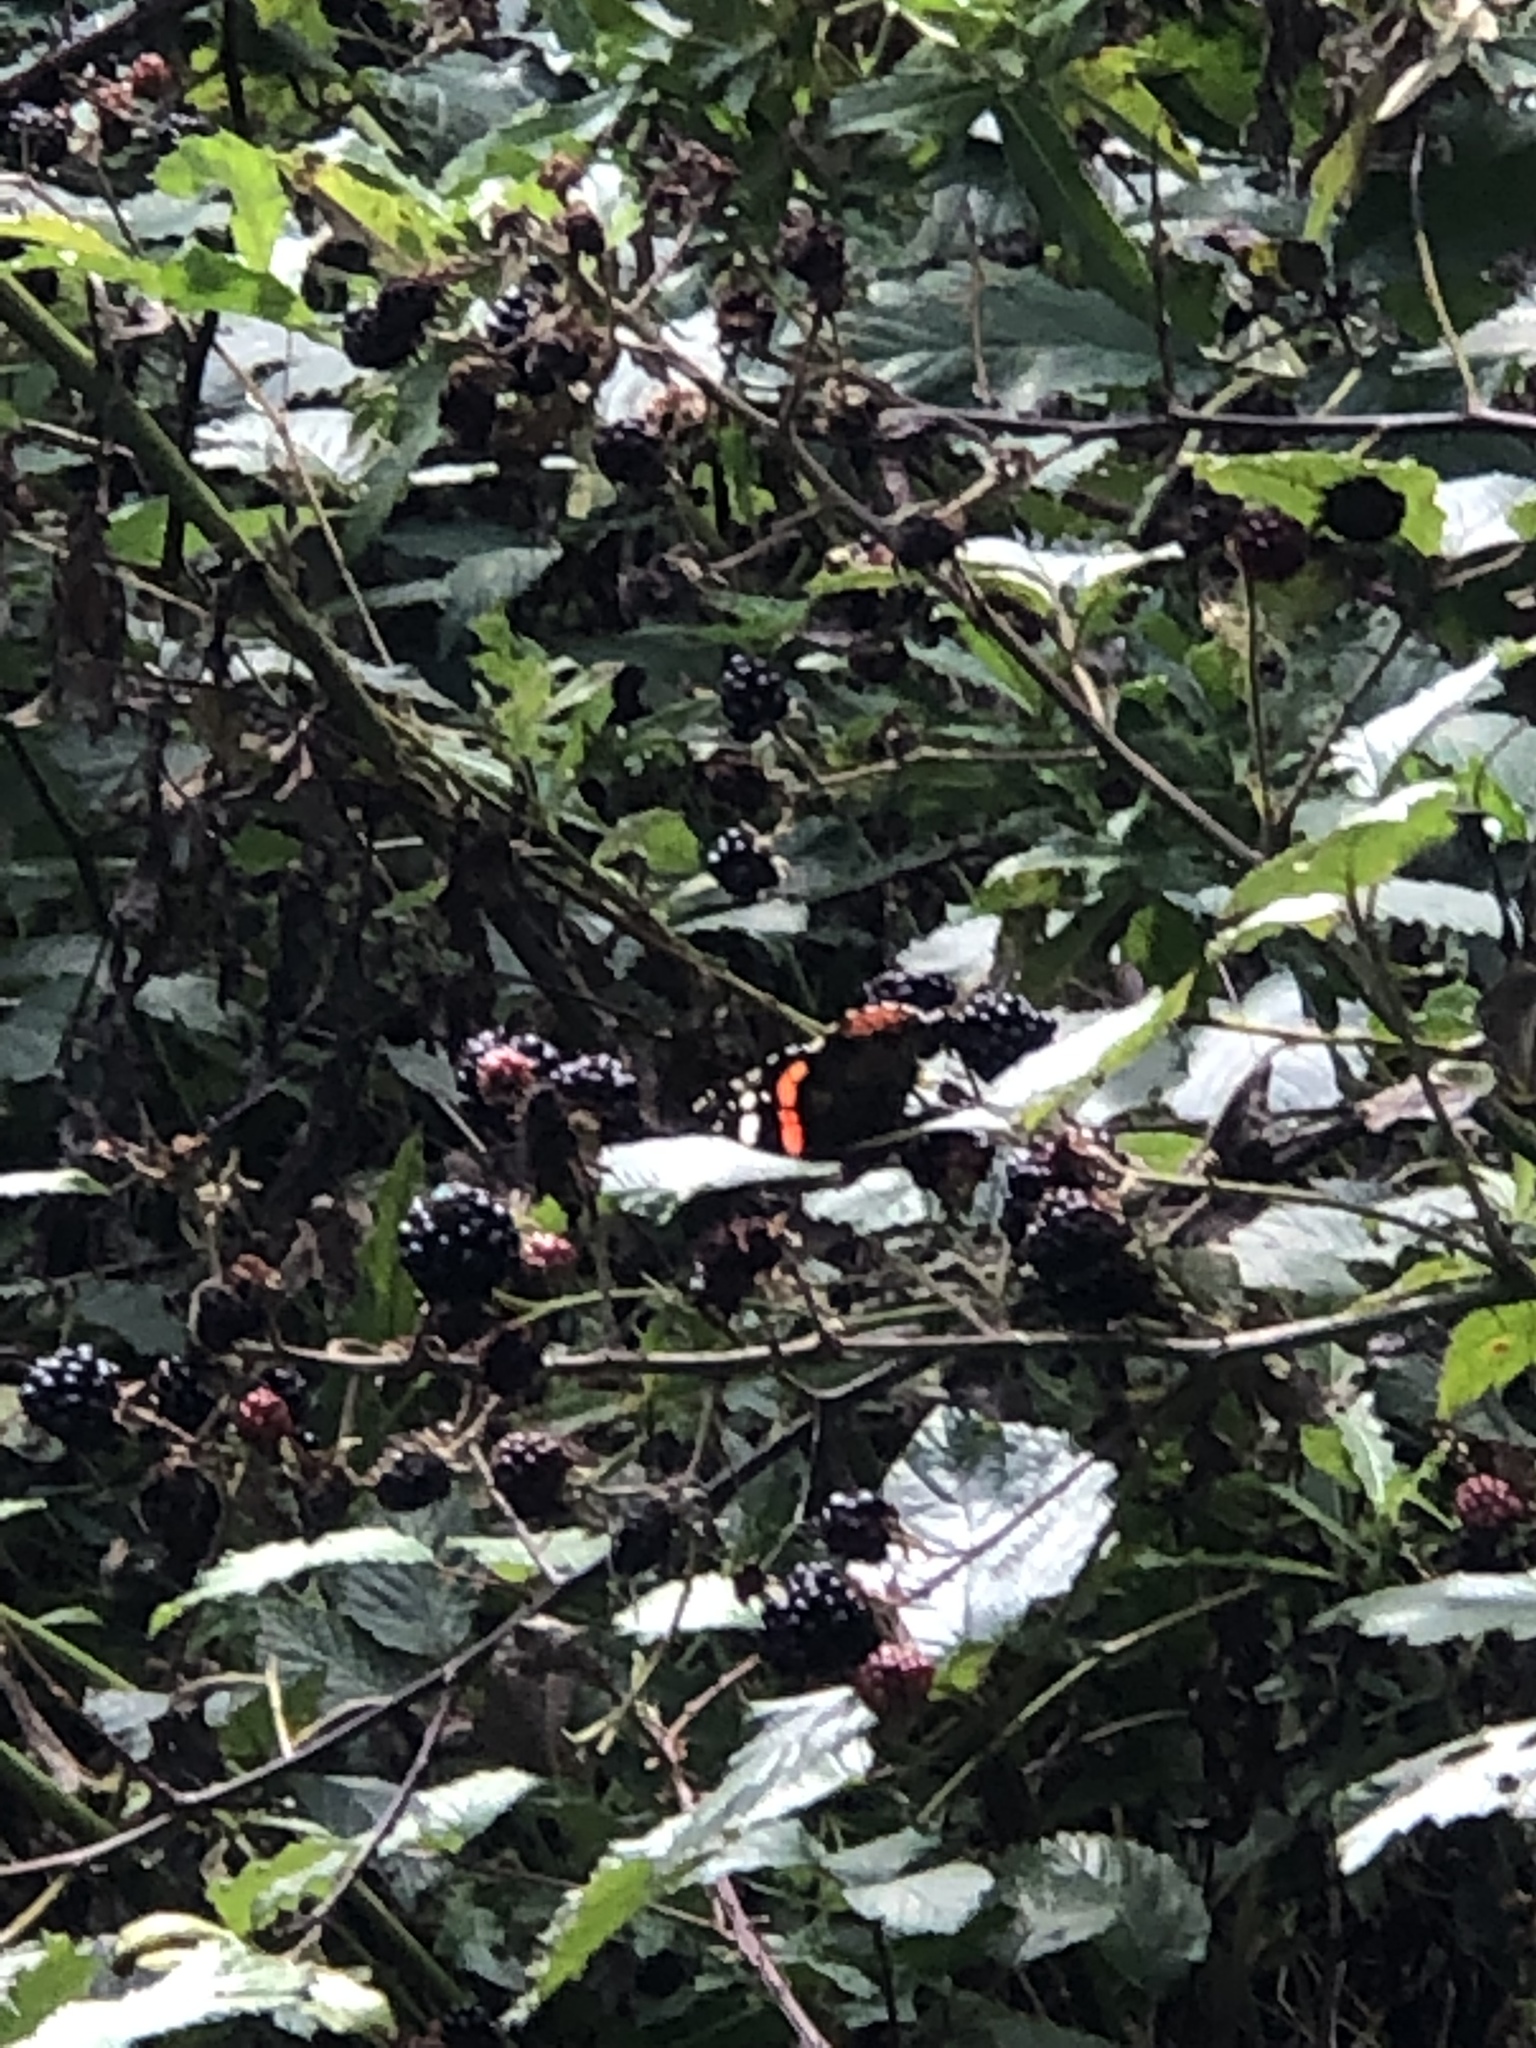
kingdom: Animalia
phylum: Arthropoda
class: Insecta
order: Lepidoptera
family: Nymphalidae
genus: Vanessa
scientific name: Vanessa atalanta
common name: Red admiral
